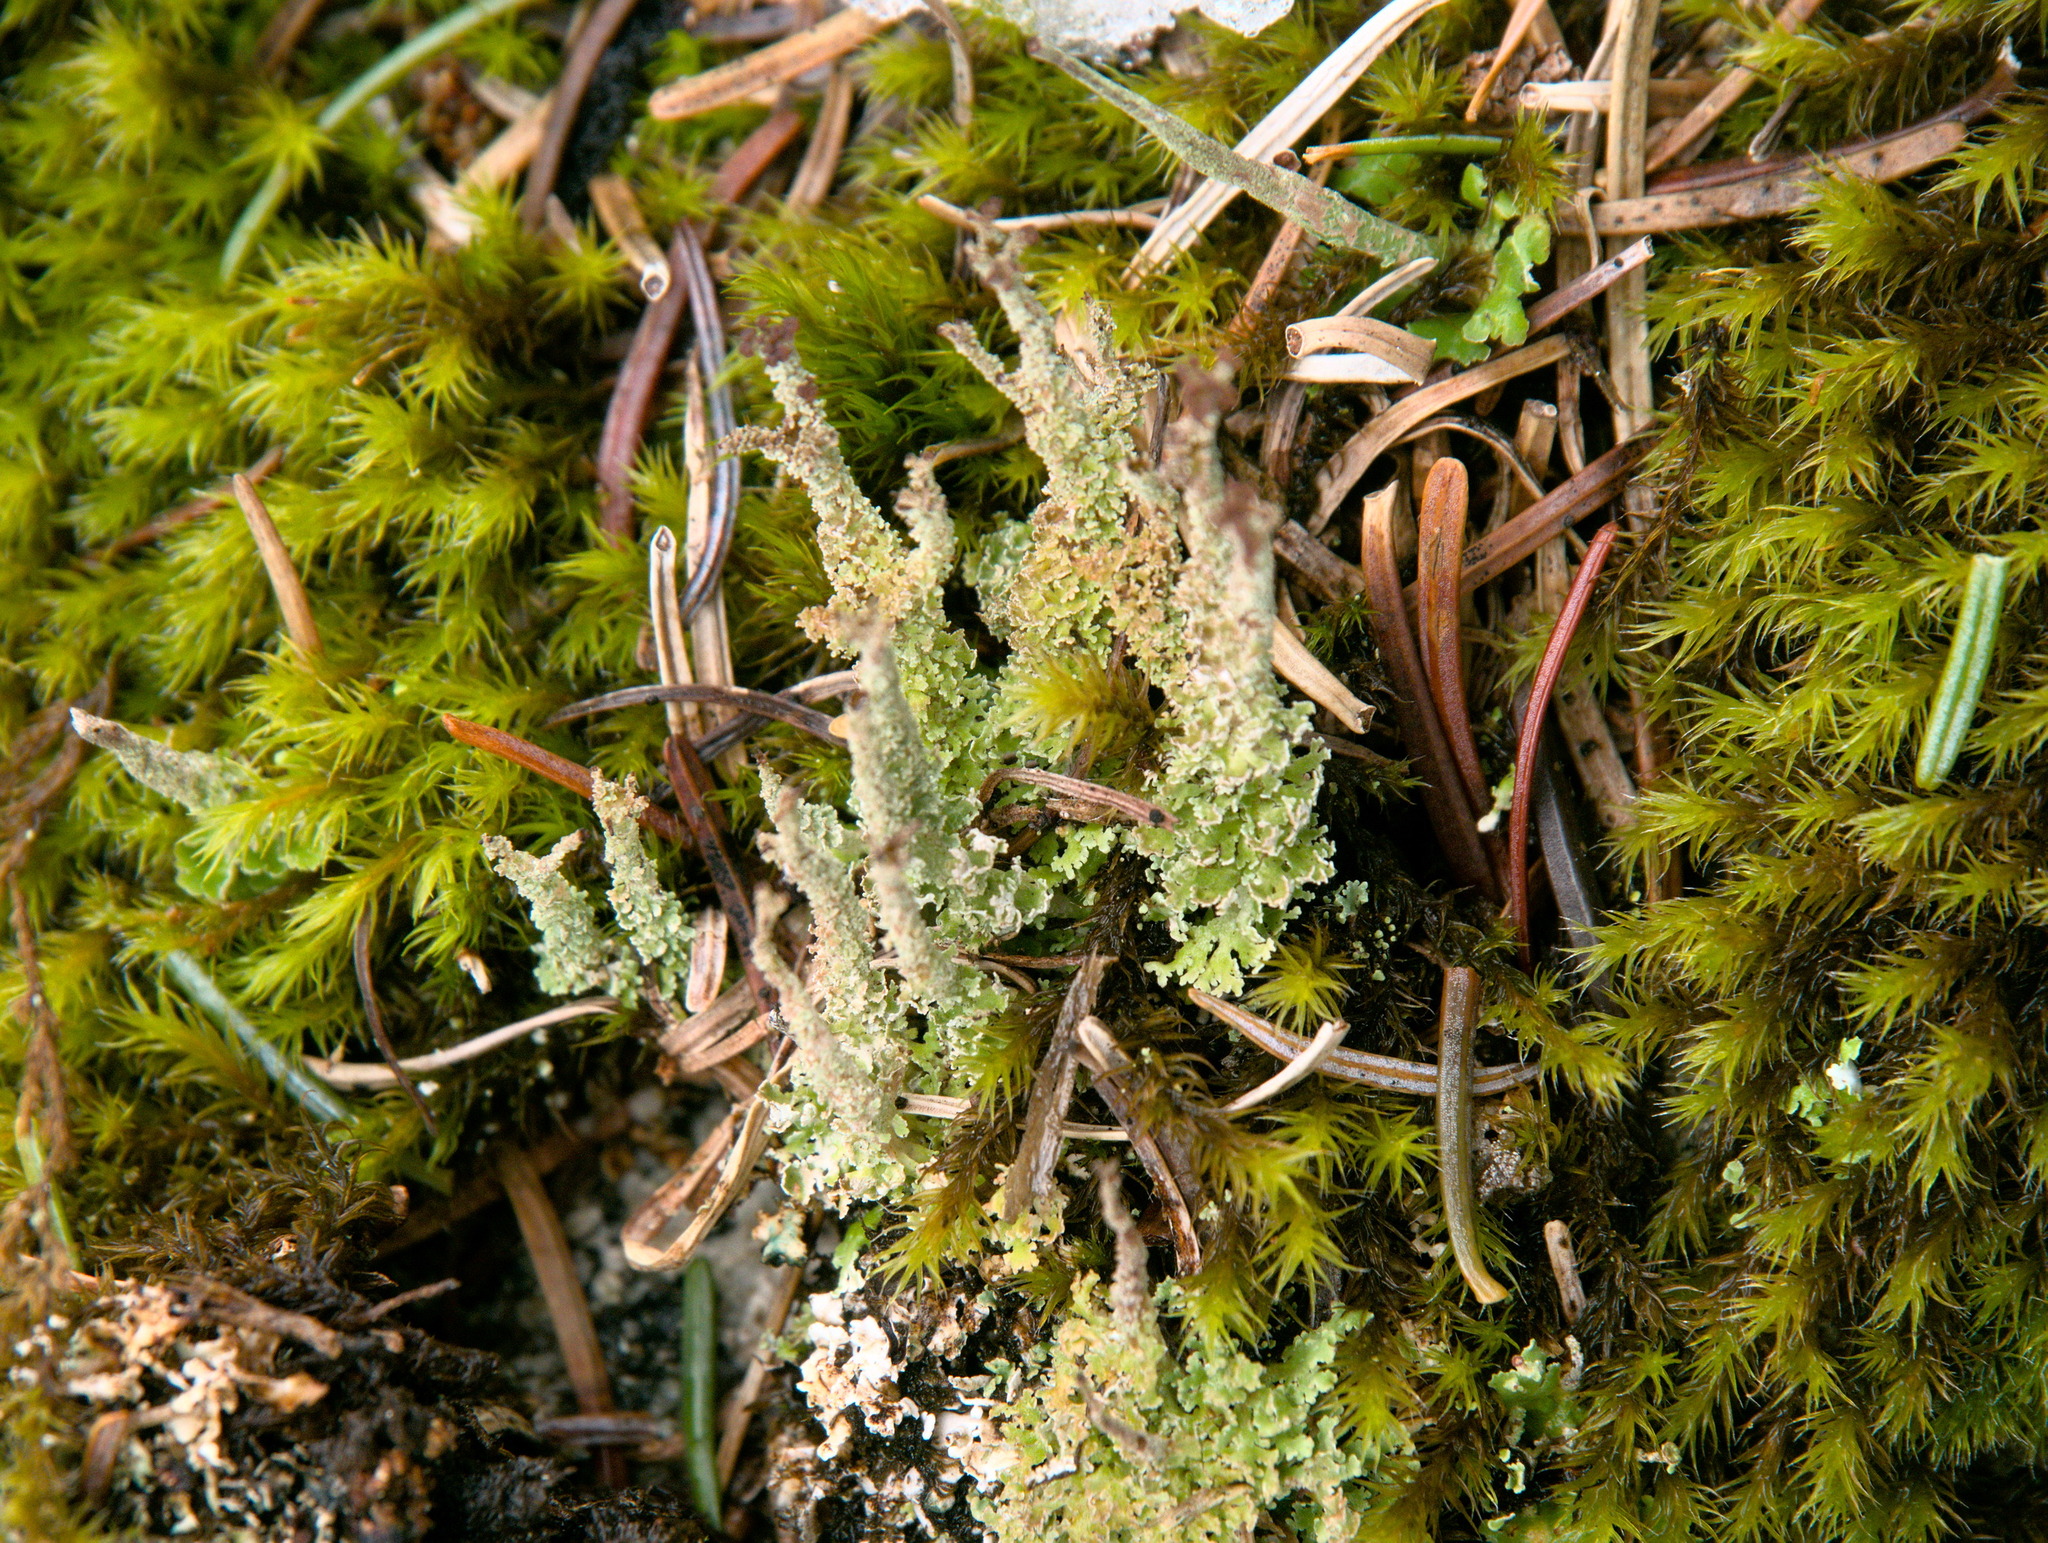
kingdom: Fungi
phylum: Ascomycota
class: Lecanoromycetes
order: Lecanorales
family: Cladoniaceae
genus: Cladonia
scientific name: Cladonia squamosa
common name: Dragon horn
